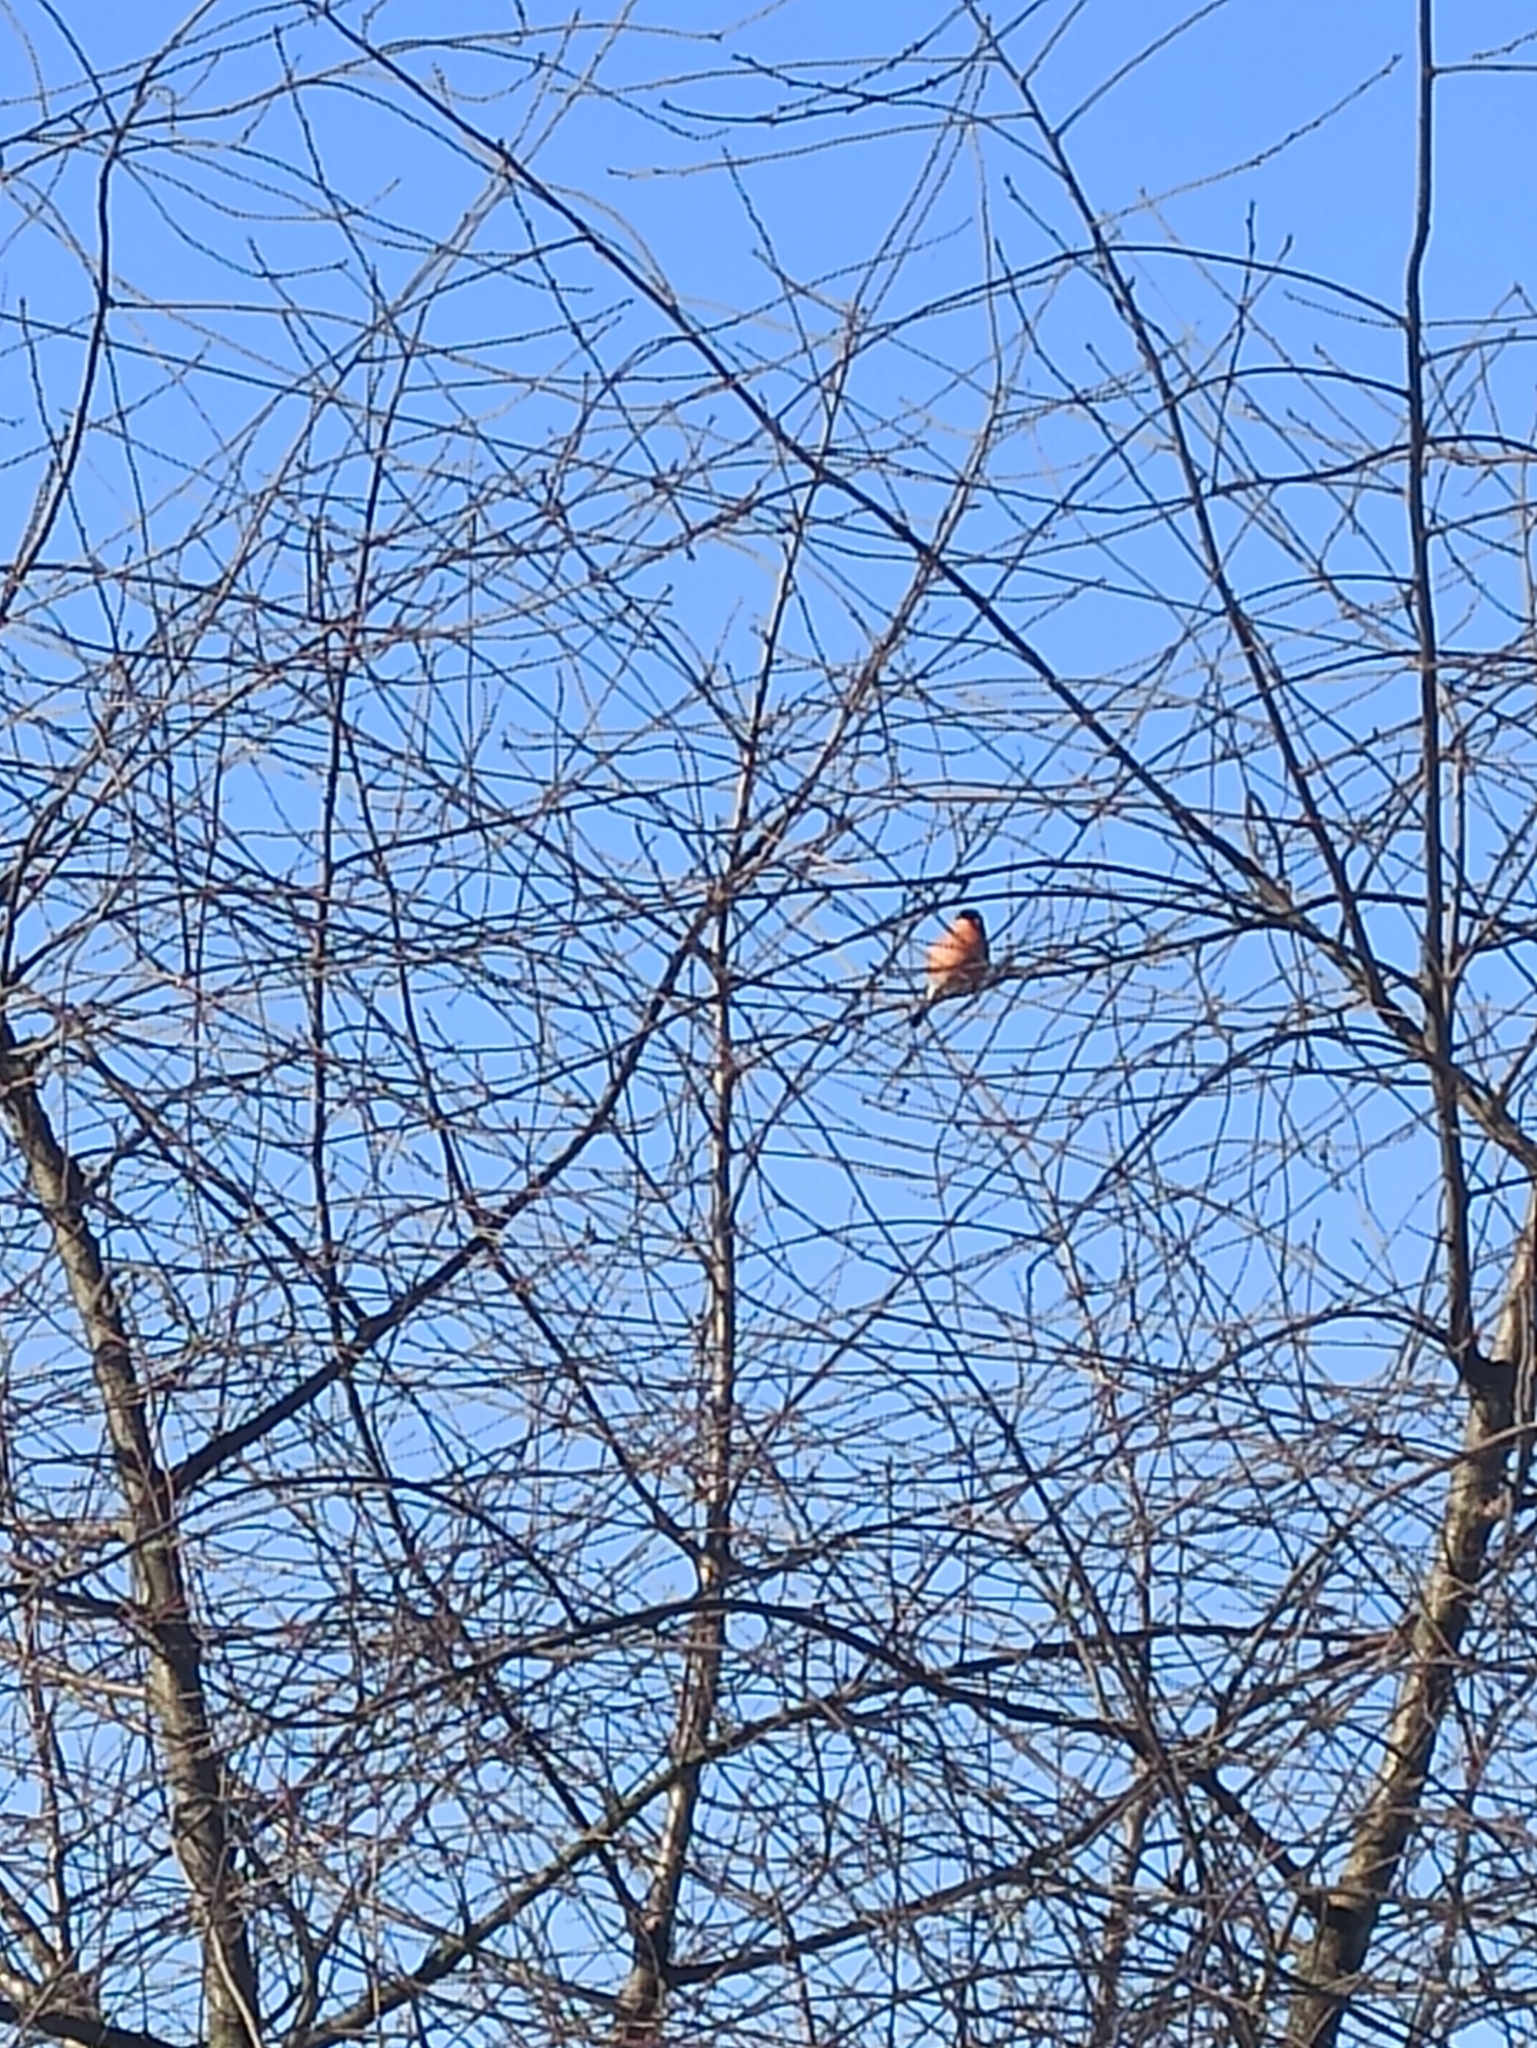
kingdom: Animalia
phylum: Chordata
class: Aves
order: Passeriformes
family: Fringillidae
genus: Pyrrhula
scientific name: Pyrrhula pyrrhula
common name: Eurasian bullfinch
